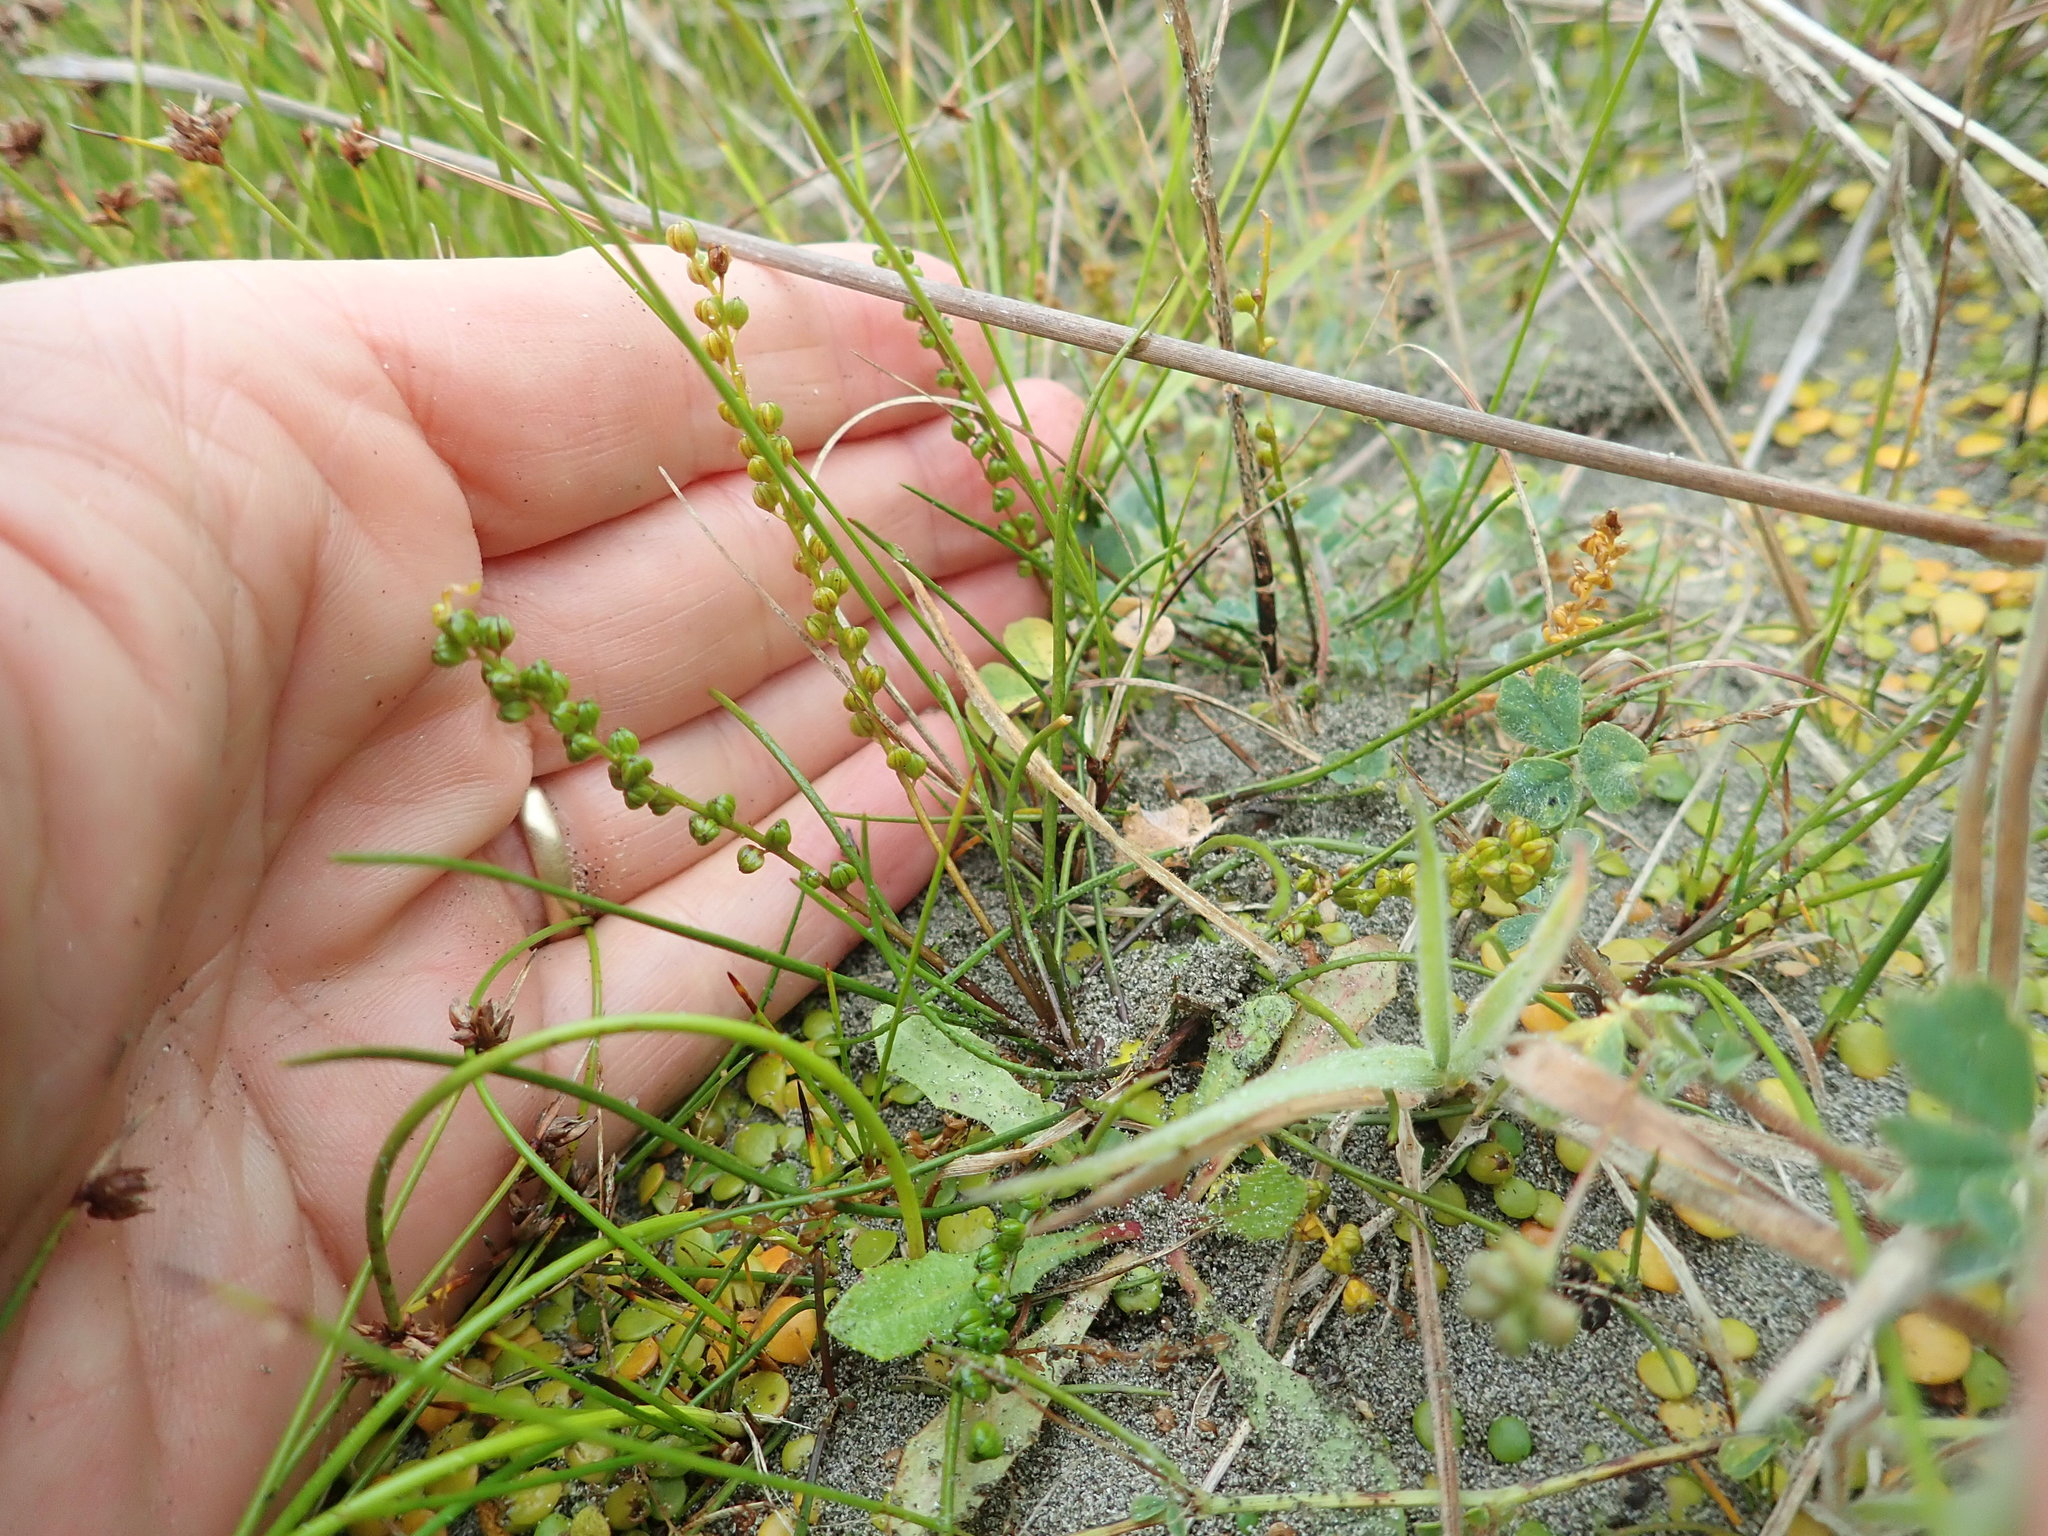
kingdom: Plantae
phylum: Tracheophyta
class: Liliopsida
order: Alismatales
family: Juncaginaceae
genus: Triglochin
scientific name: Triglochin striata
